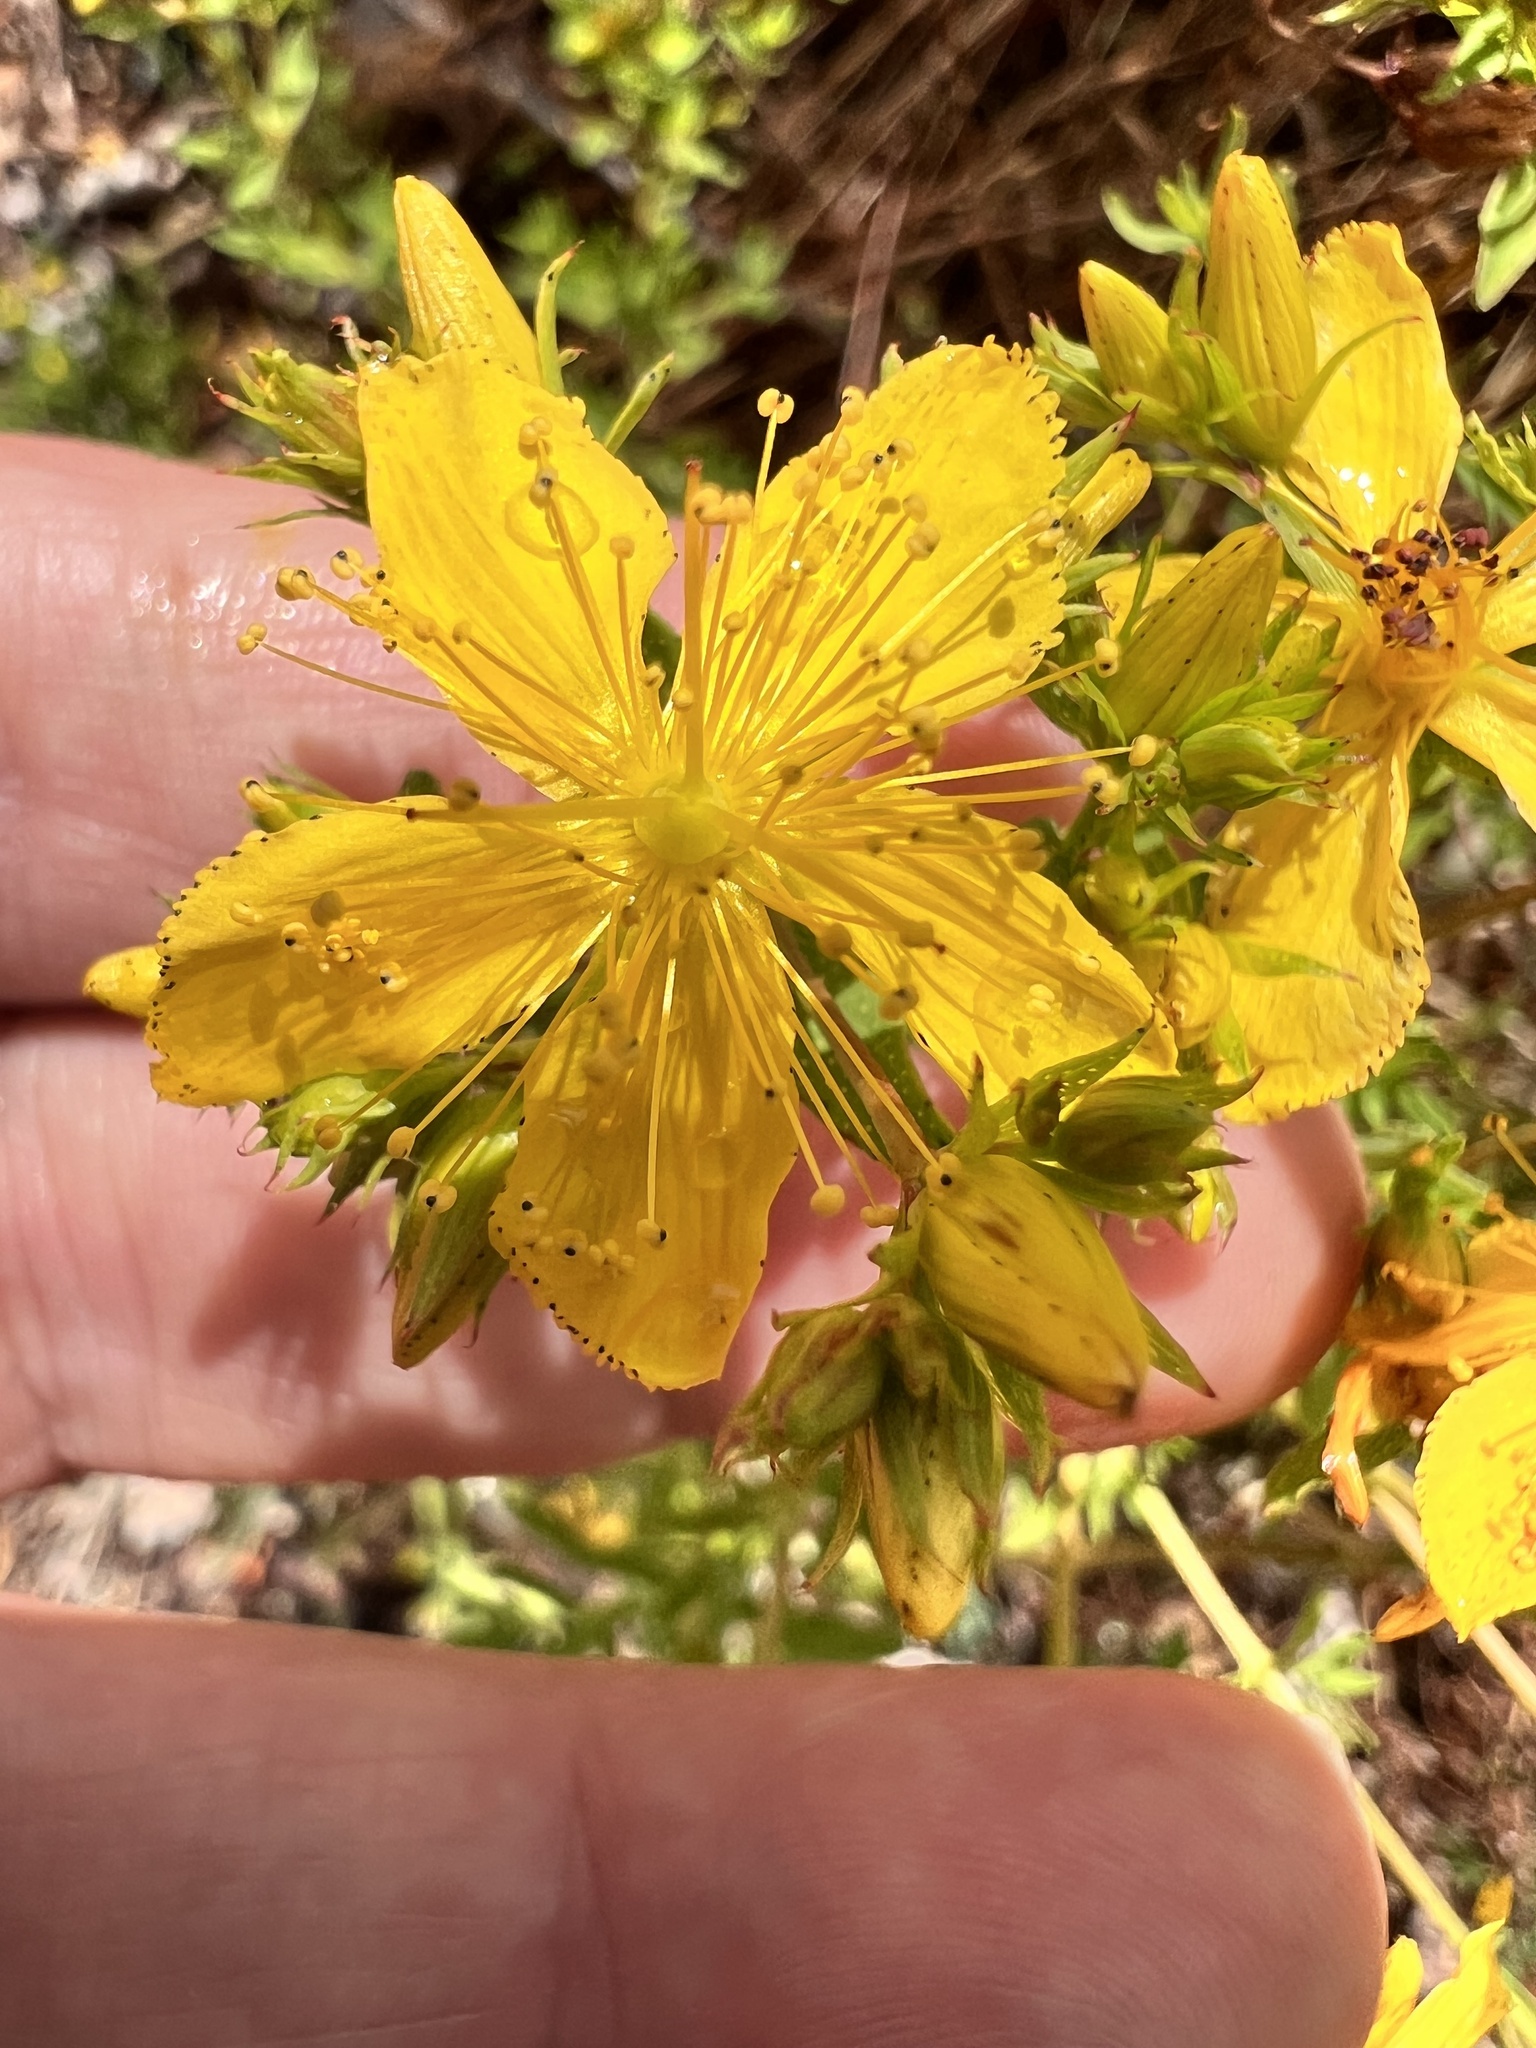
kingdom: Plantae
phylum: Tracheophyta
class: Magnoliopsida
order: Malpighiales
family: Hypericaceae
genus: Hypericum
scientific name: Hypericum perforatum
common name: Common st. johnswort
